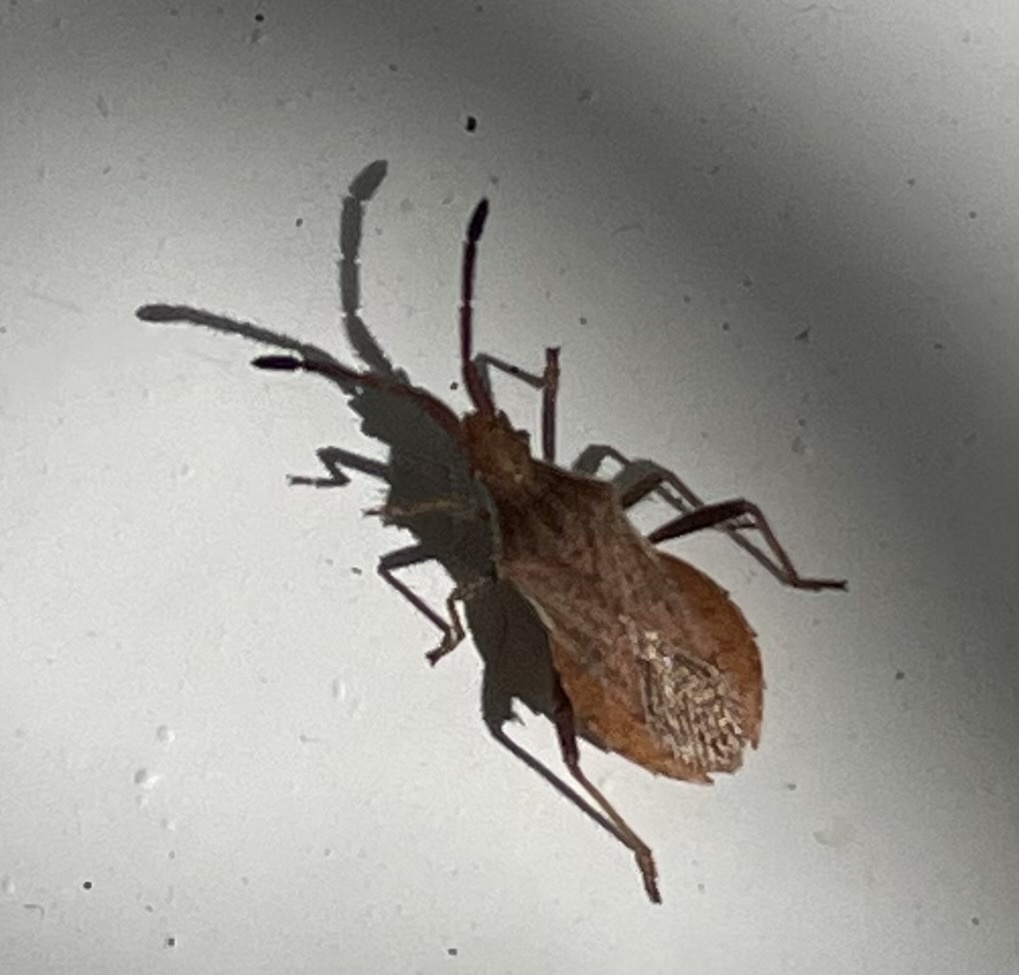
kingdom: Animalia
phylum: Arthropoda
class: Insecta
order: Hemiptera
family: Coreidae
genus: Coriomeris
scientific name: Coriomeris denticulatus
